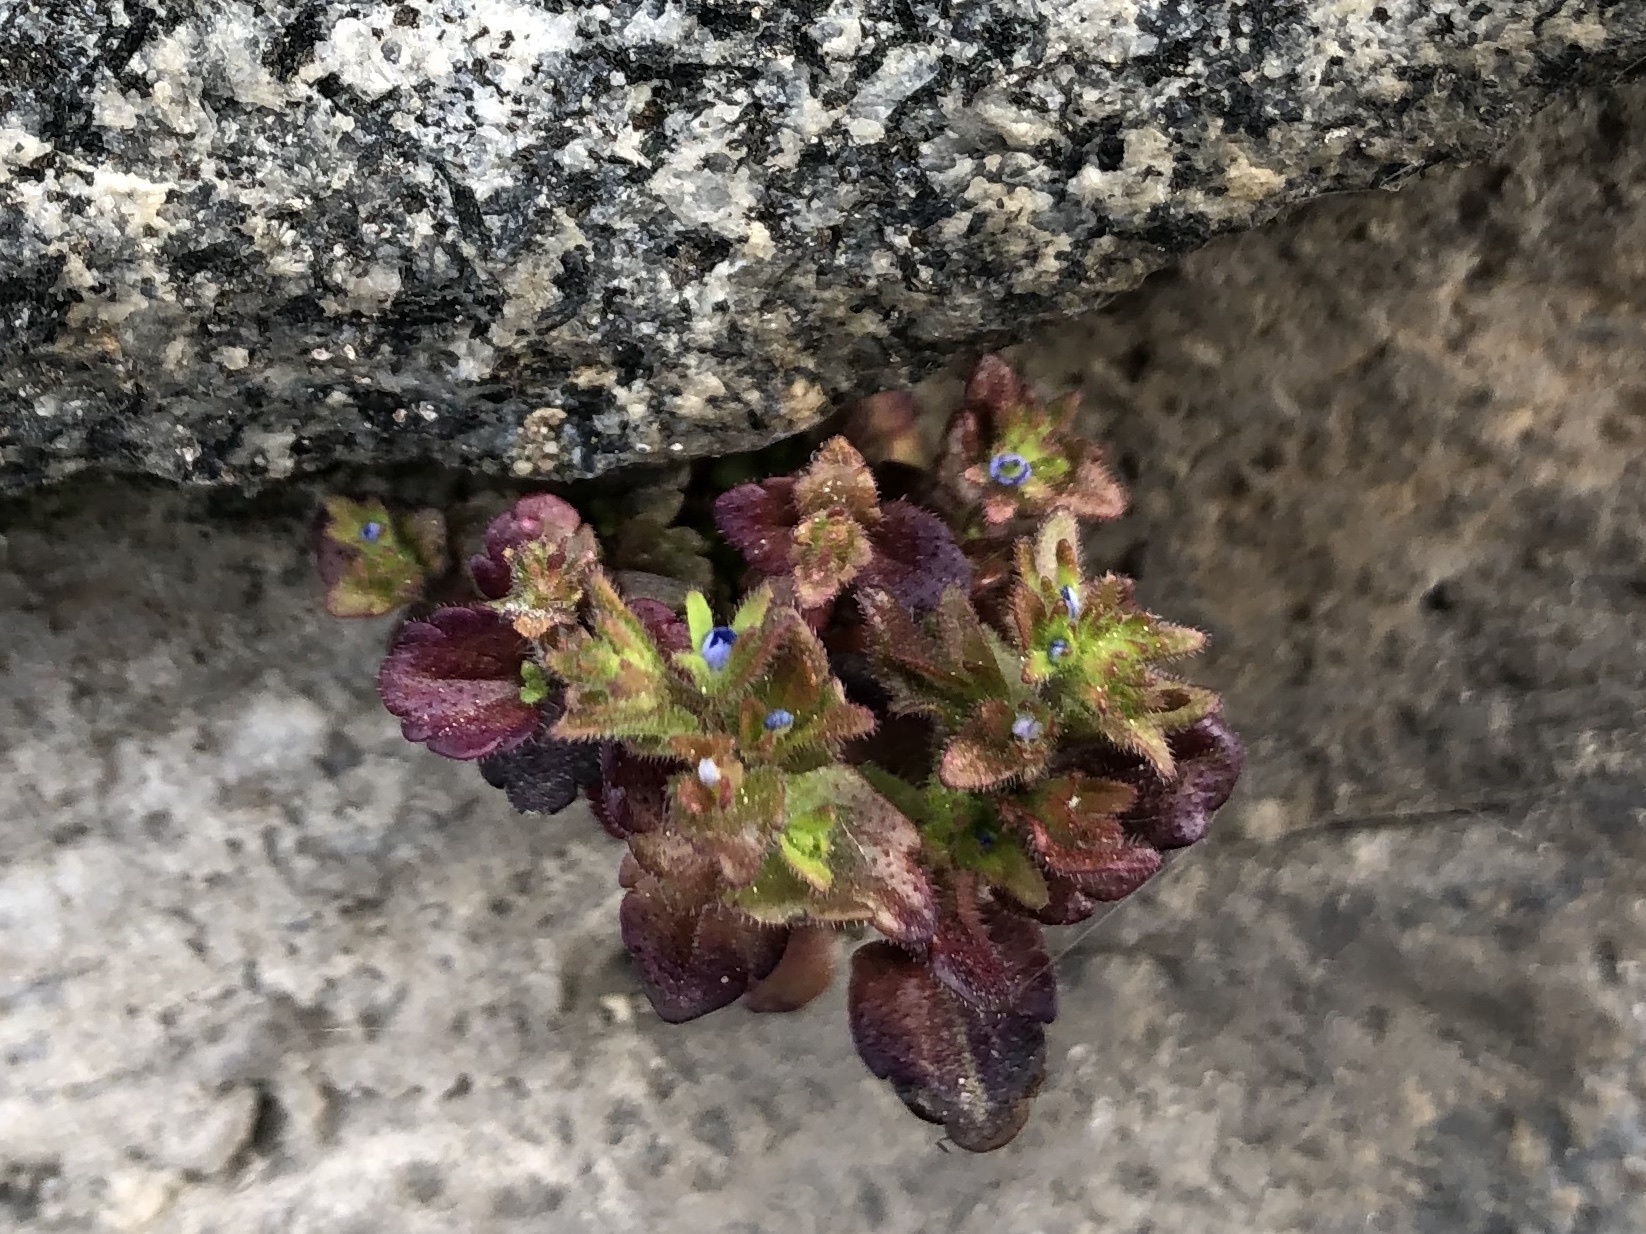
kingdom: Plantae
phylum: Tracheophyta
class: Magnoliopsida
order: Lamiales
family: Plantaginaceae
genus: Veronica
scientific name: Veronica arvensis
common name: Corn speedwell
